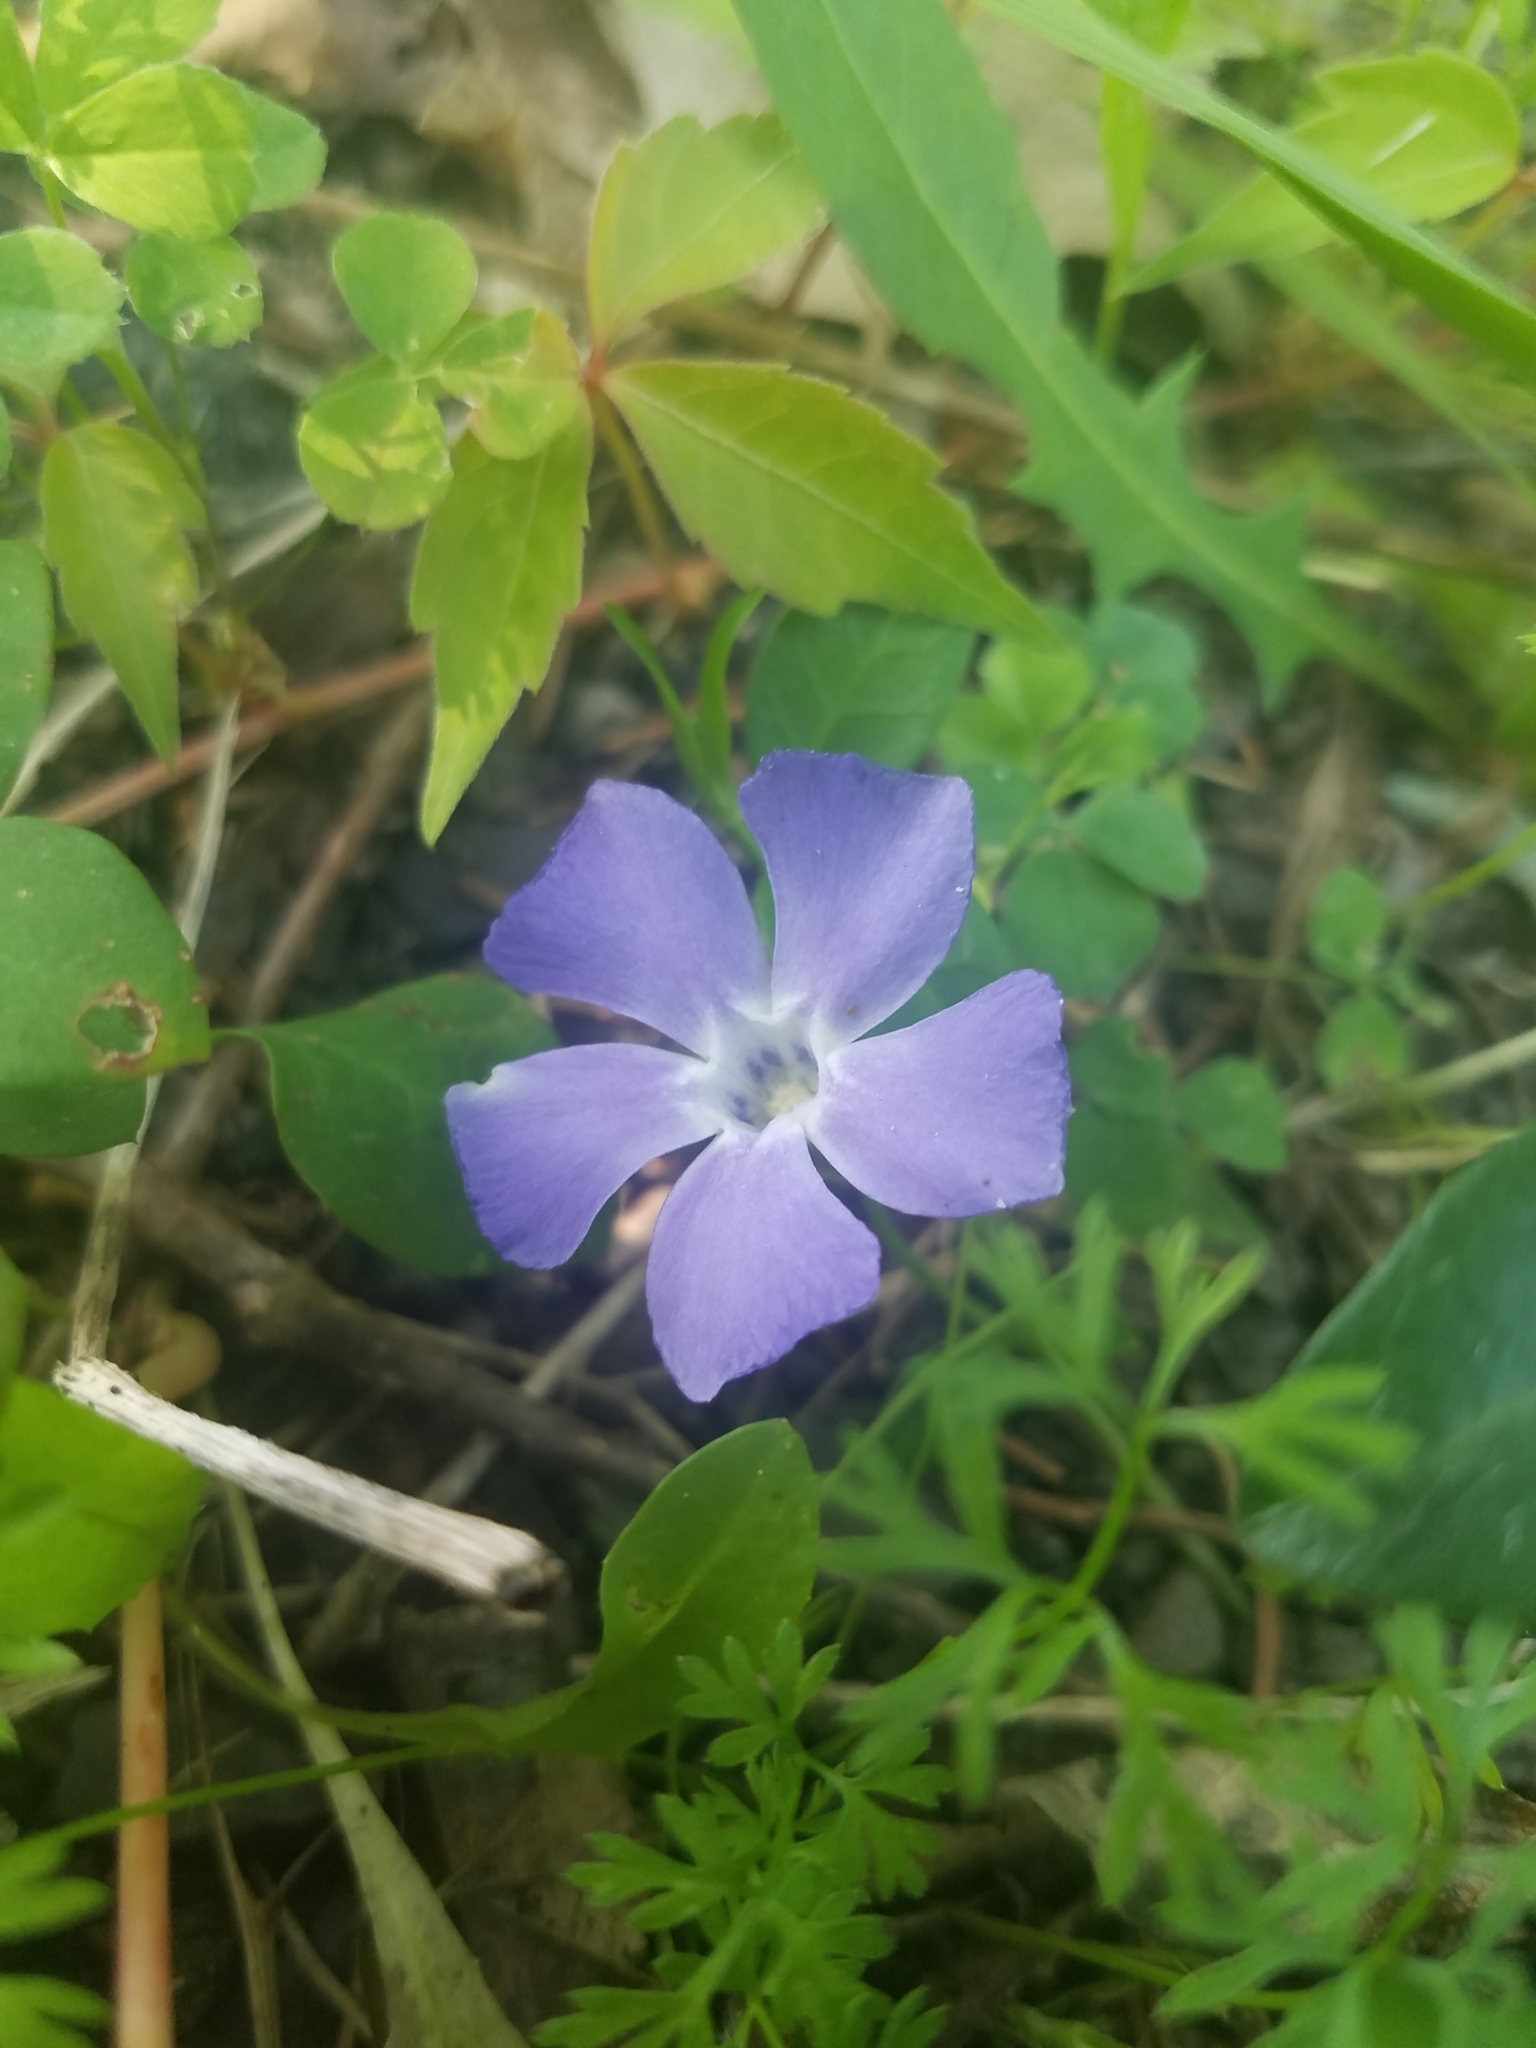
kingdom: Plantae
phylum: Tracheophyta
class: Magnoliopsida
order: Gentianales
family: Apocynaceae
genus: Vinca
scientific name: Vinca minor
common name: Lesser periwinkle
